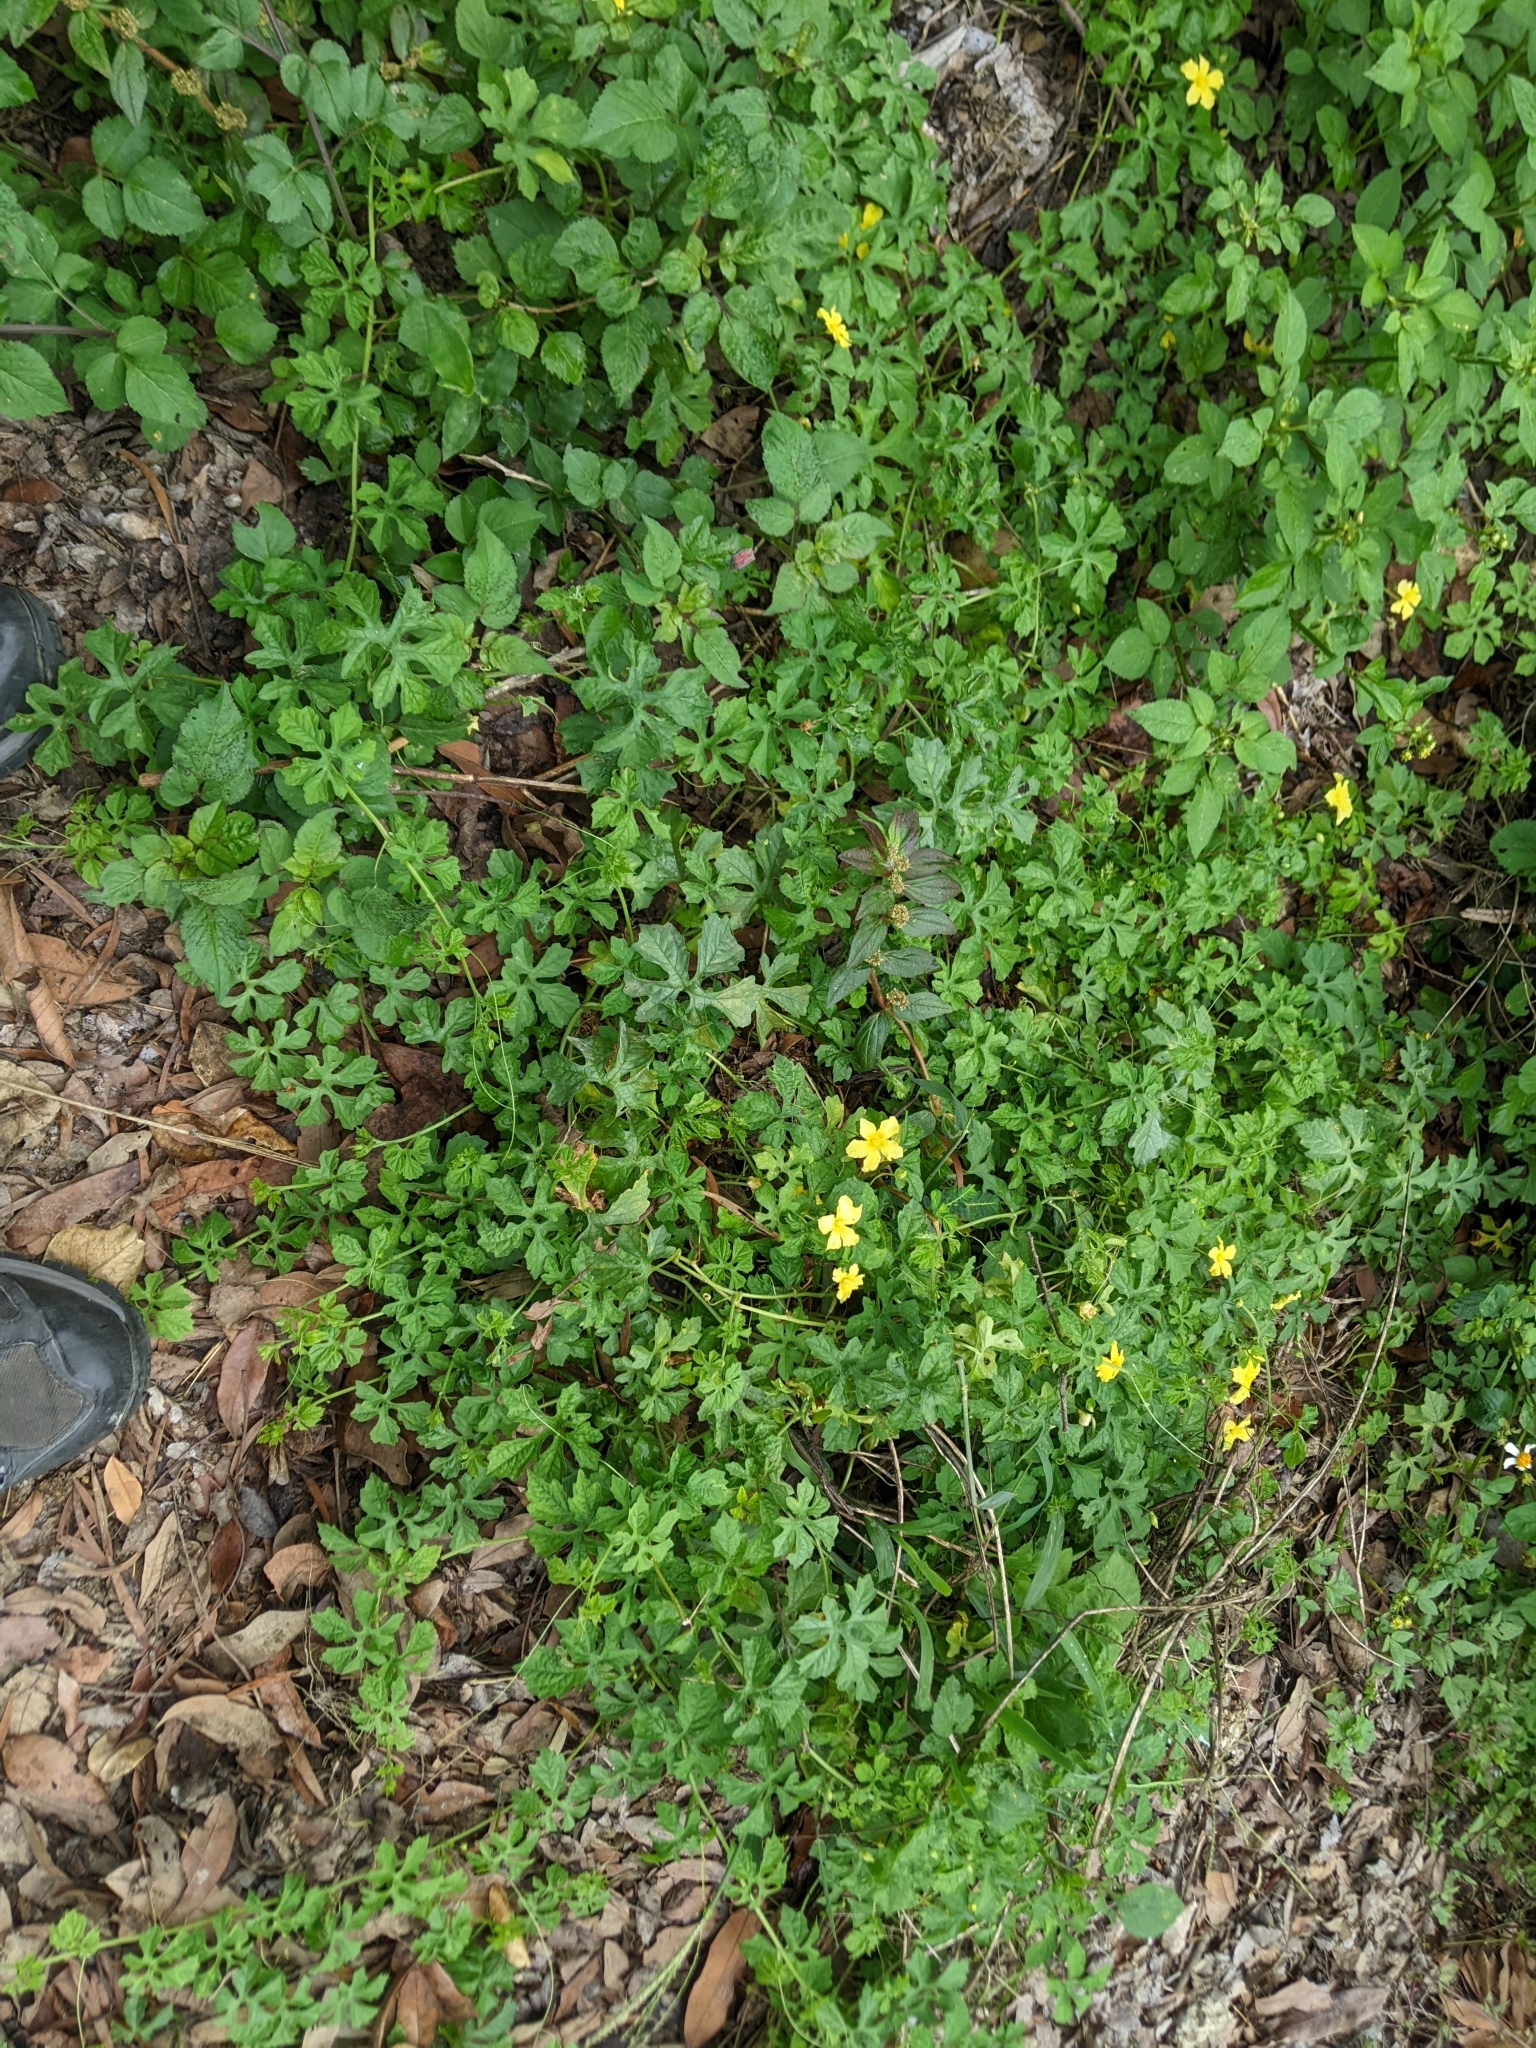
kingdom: Plantae
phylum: Tracheophyta
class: Magnoliopsida
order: Cucurbitales
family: Cucurbitaceae
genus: Momordica
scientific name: Momordica charantia
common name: Balsampear
